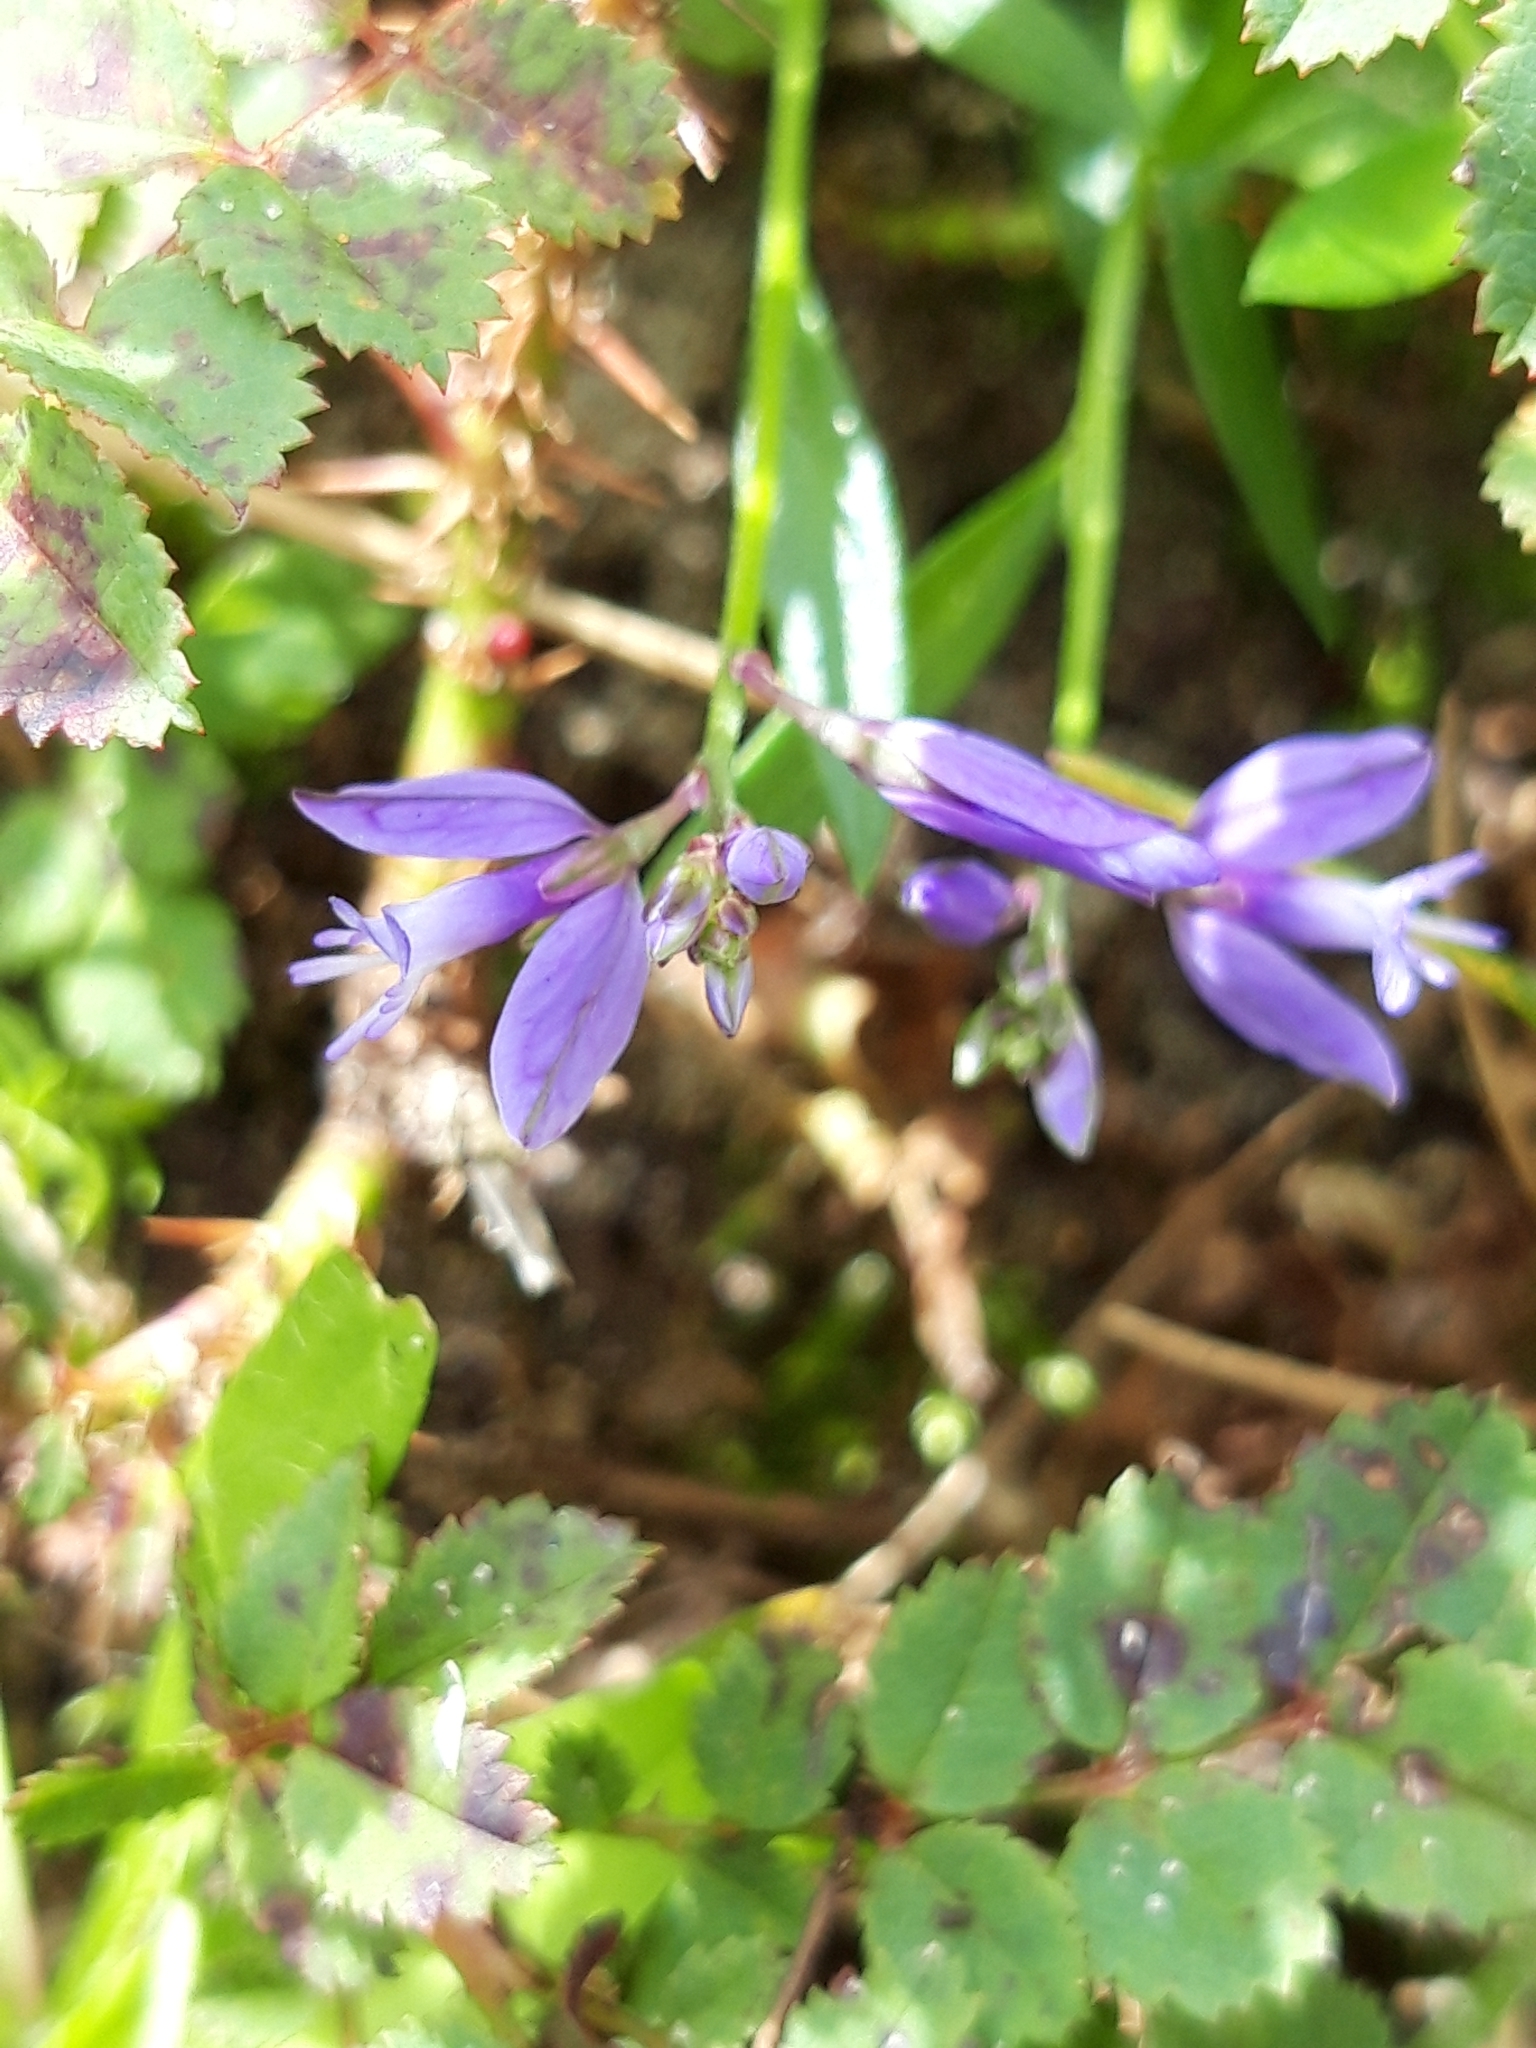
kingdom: Plantae
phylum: Tracheophyta
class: Magnoliopsida
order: Fabales
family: Polygalaceae
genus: Polygala
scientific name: Polygala vulgaris
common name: Common milkwort
